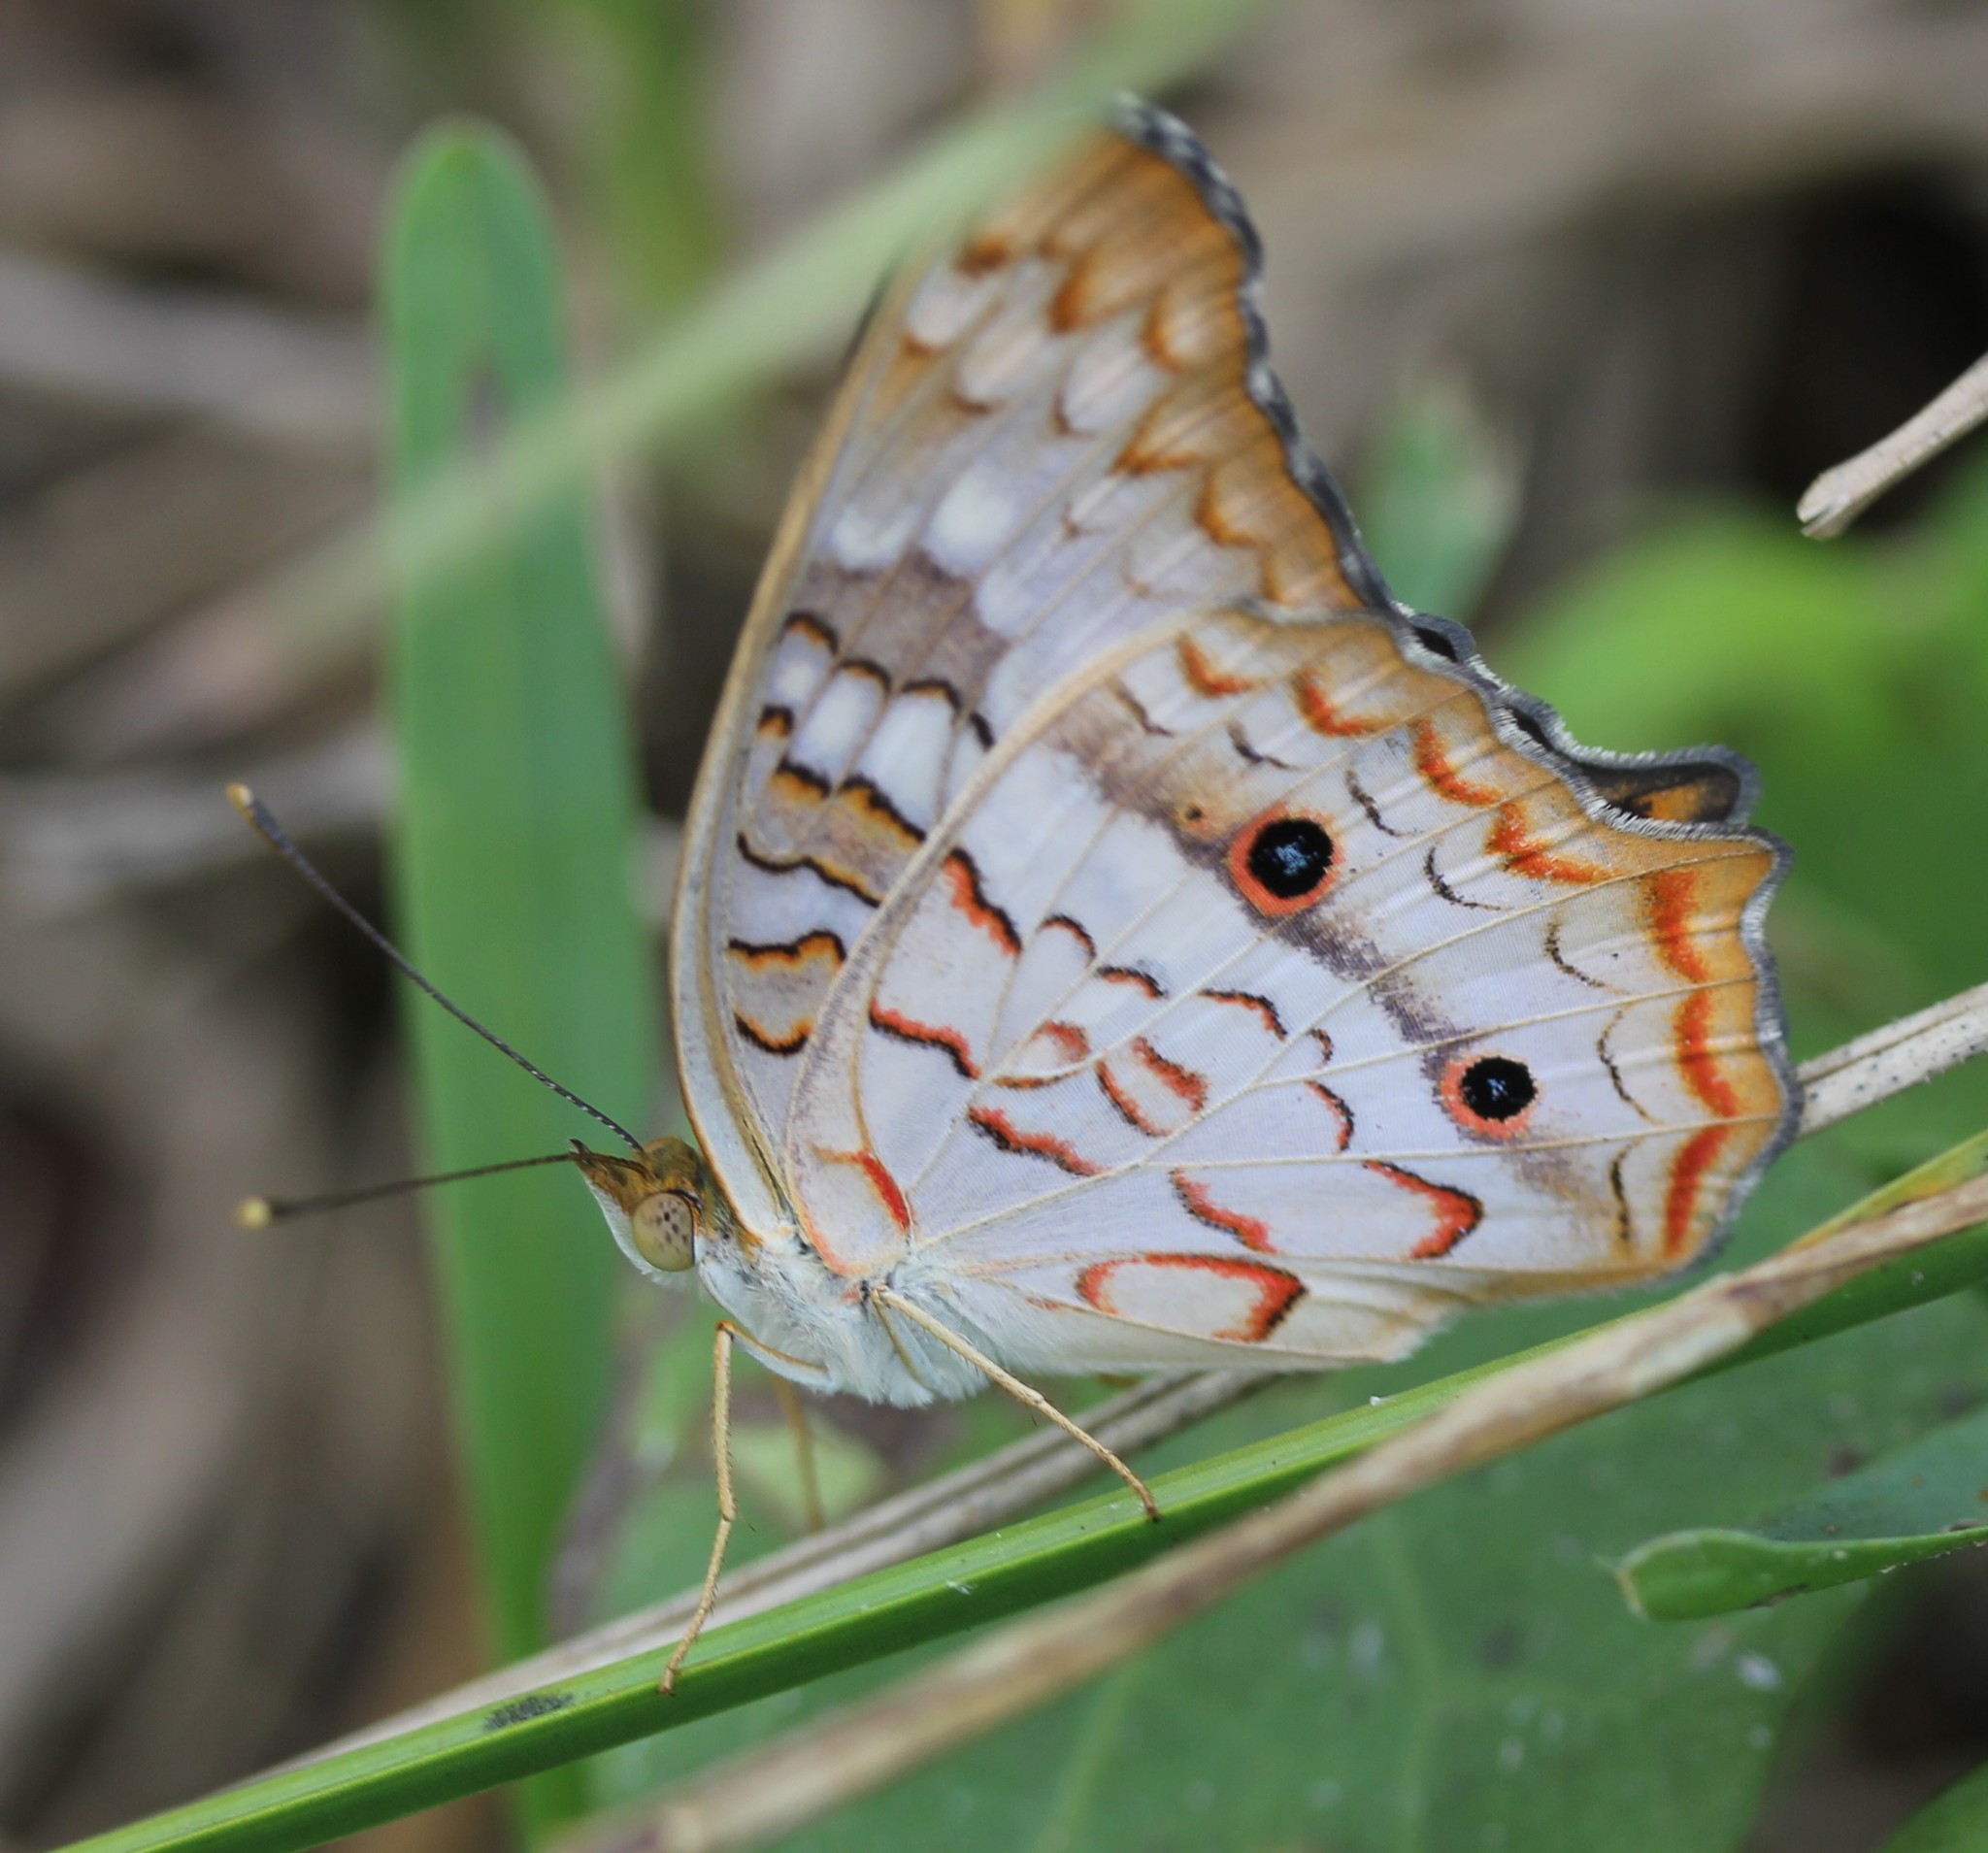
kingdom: Animalia
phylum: Arthropoda
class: Insecta
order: Lepidoptera
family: Nymphalidae
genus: Anartia
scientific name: Anartia jatrophae
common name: White peacock
